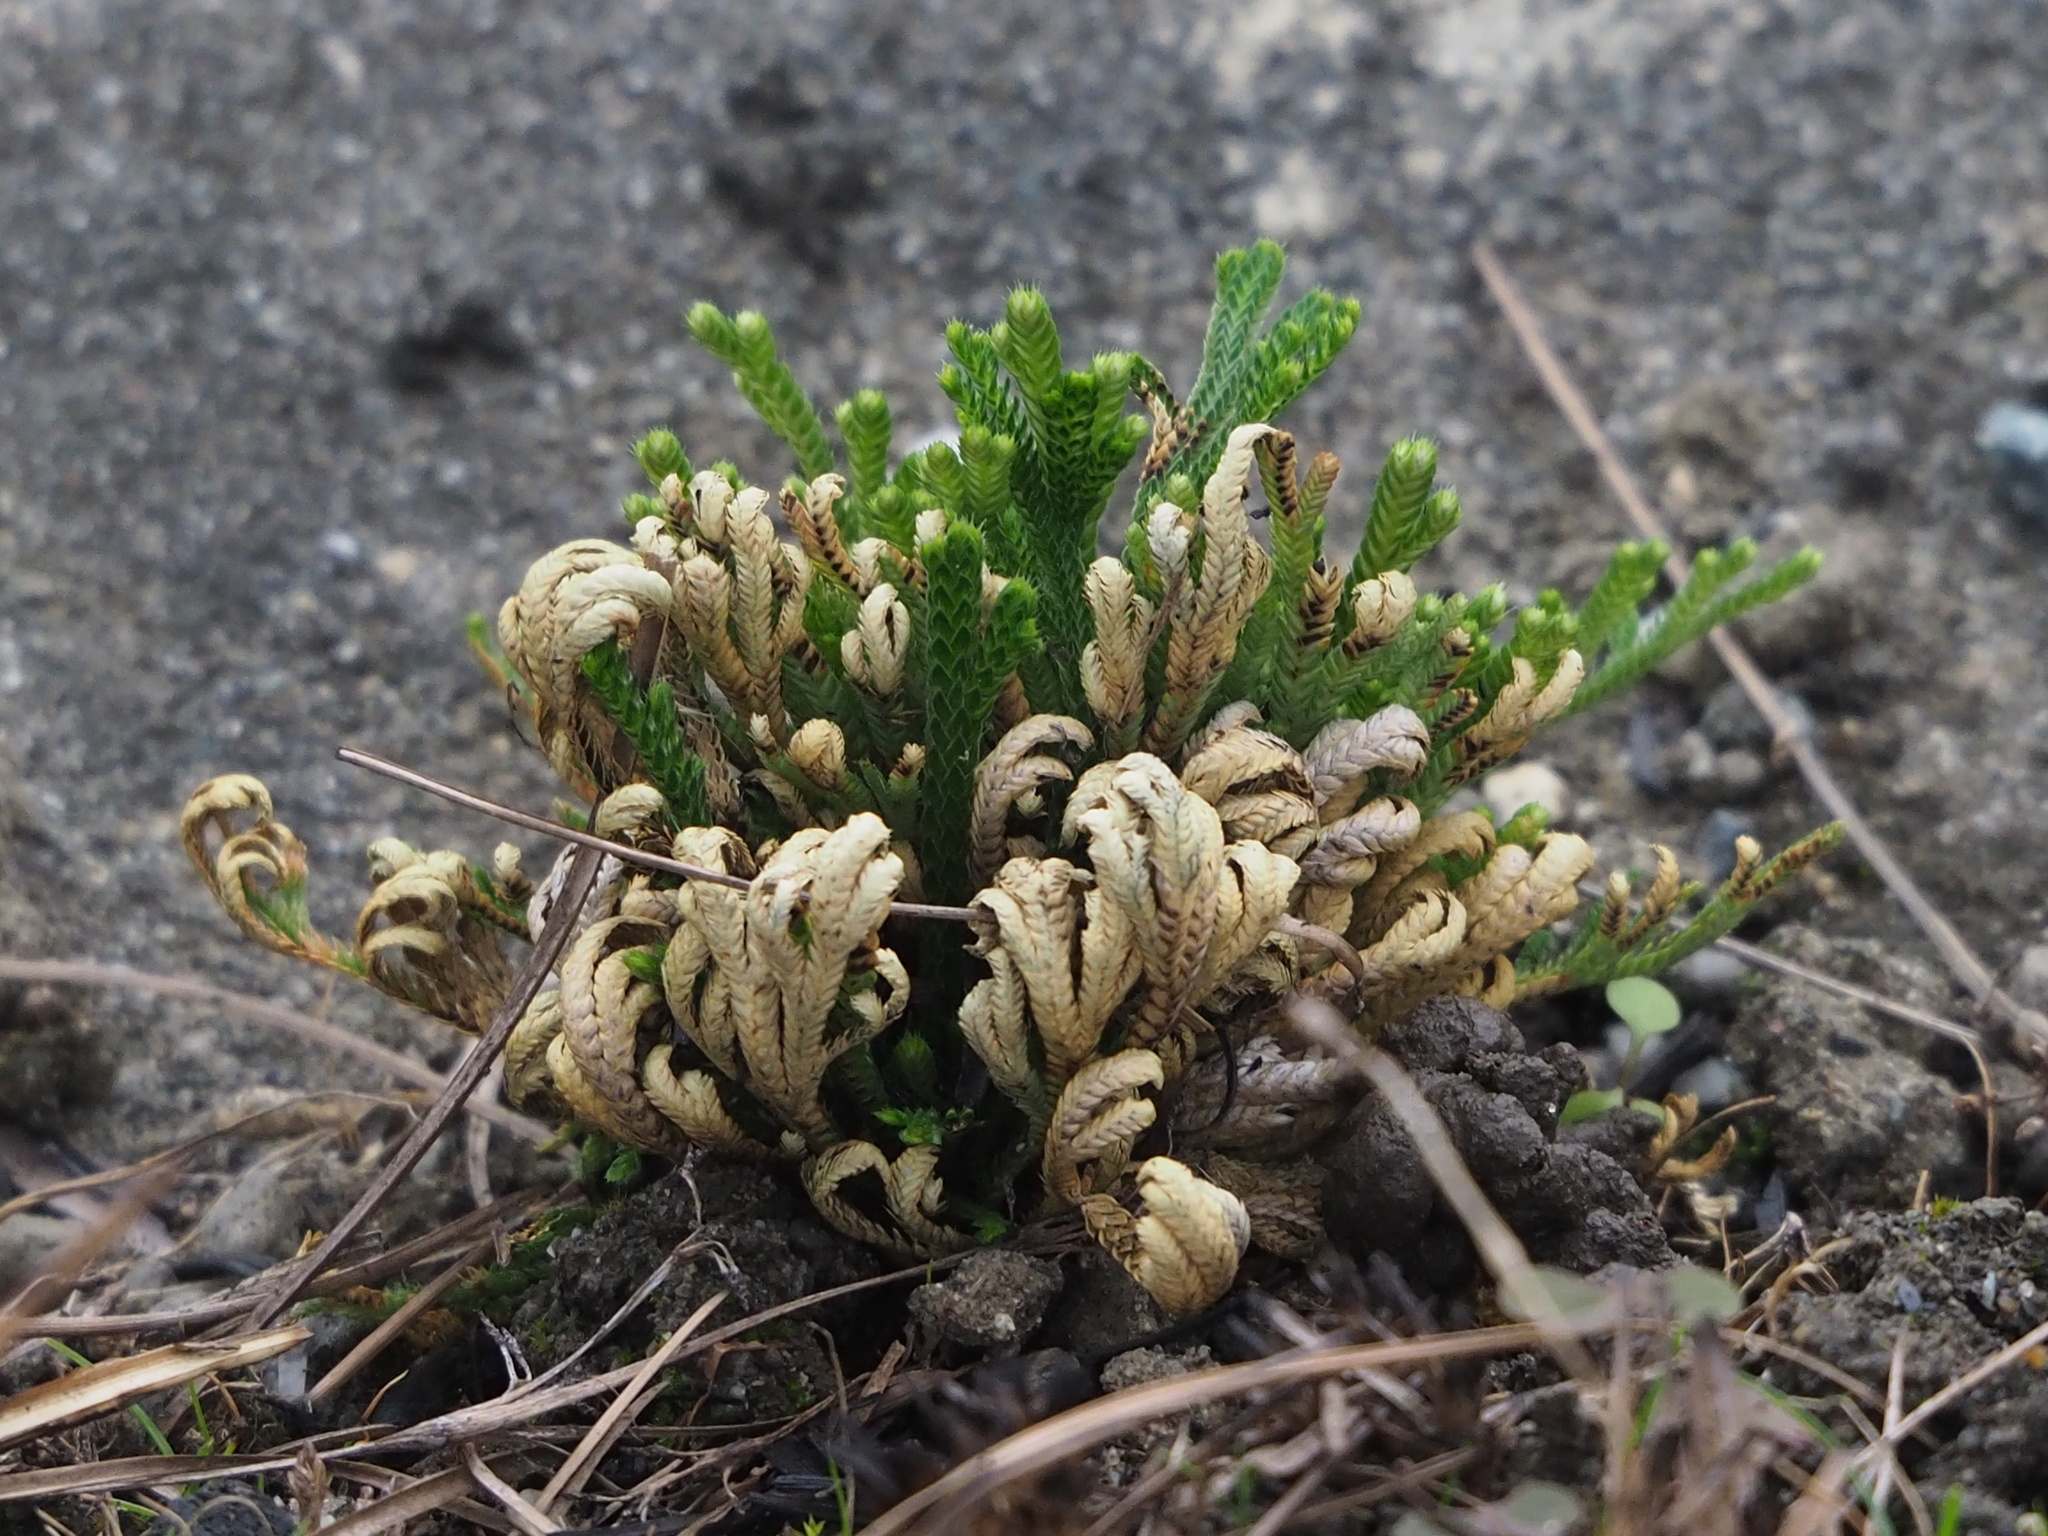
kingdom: Plantae
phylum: Tracheophyta
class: Lycopodiopsida
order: Selaginellales
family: Selaginellaceae
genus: Selaginella
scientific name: Selaginella tamariscina
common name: Little-club-moss
